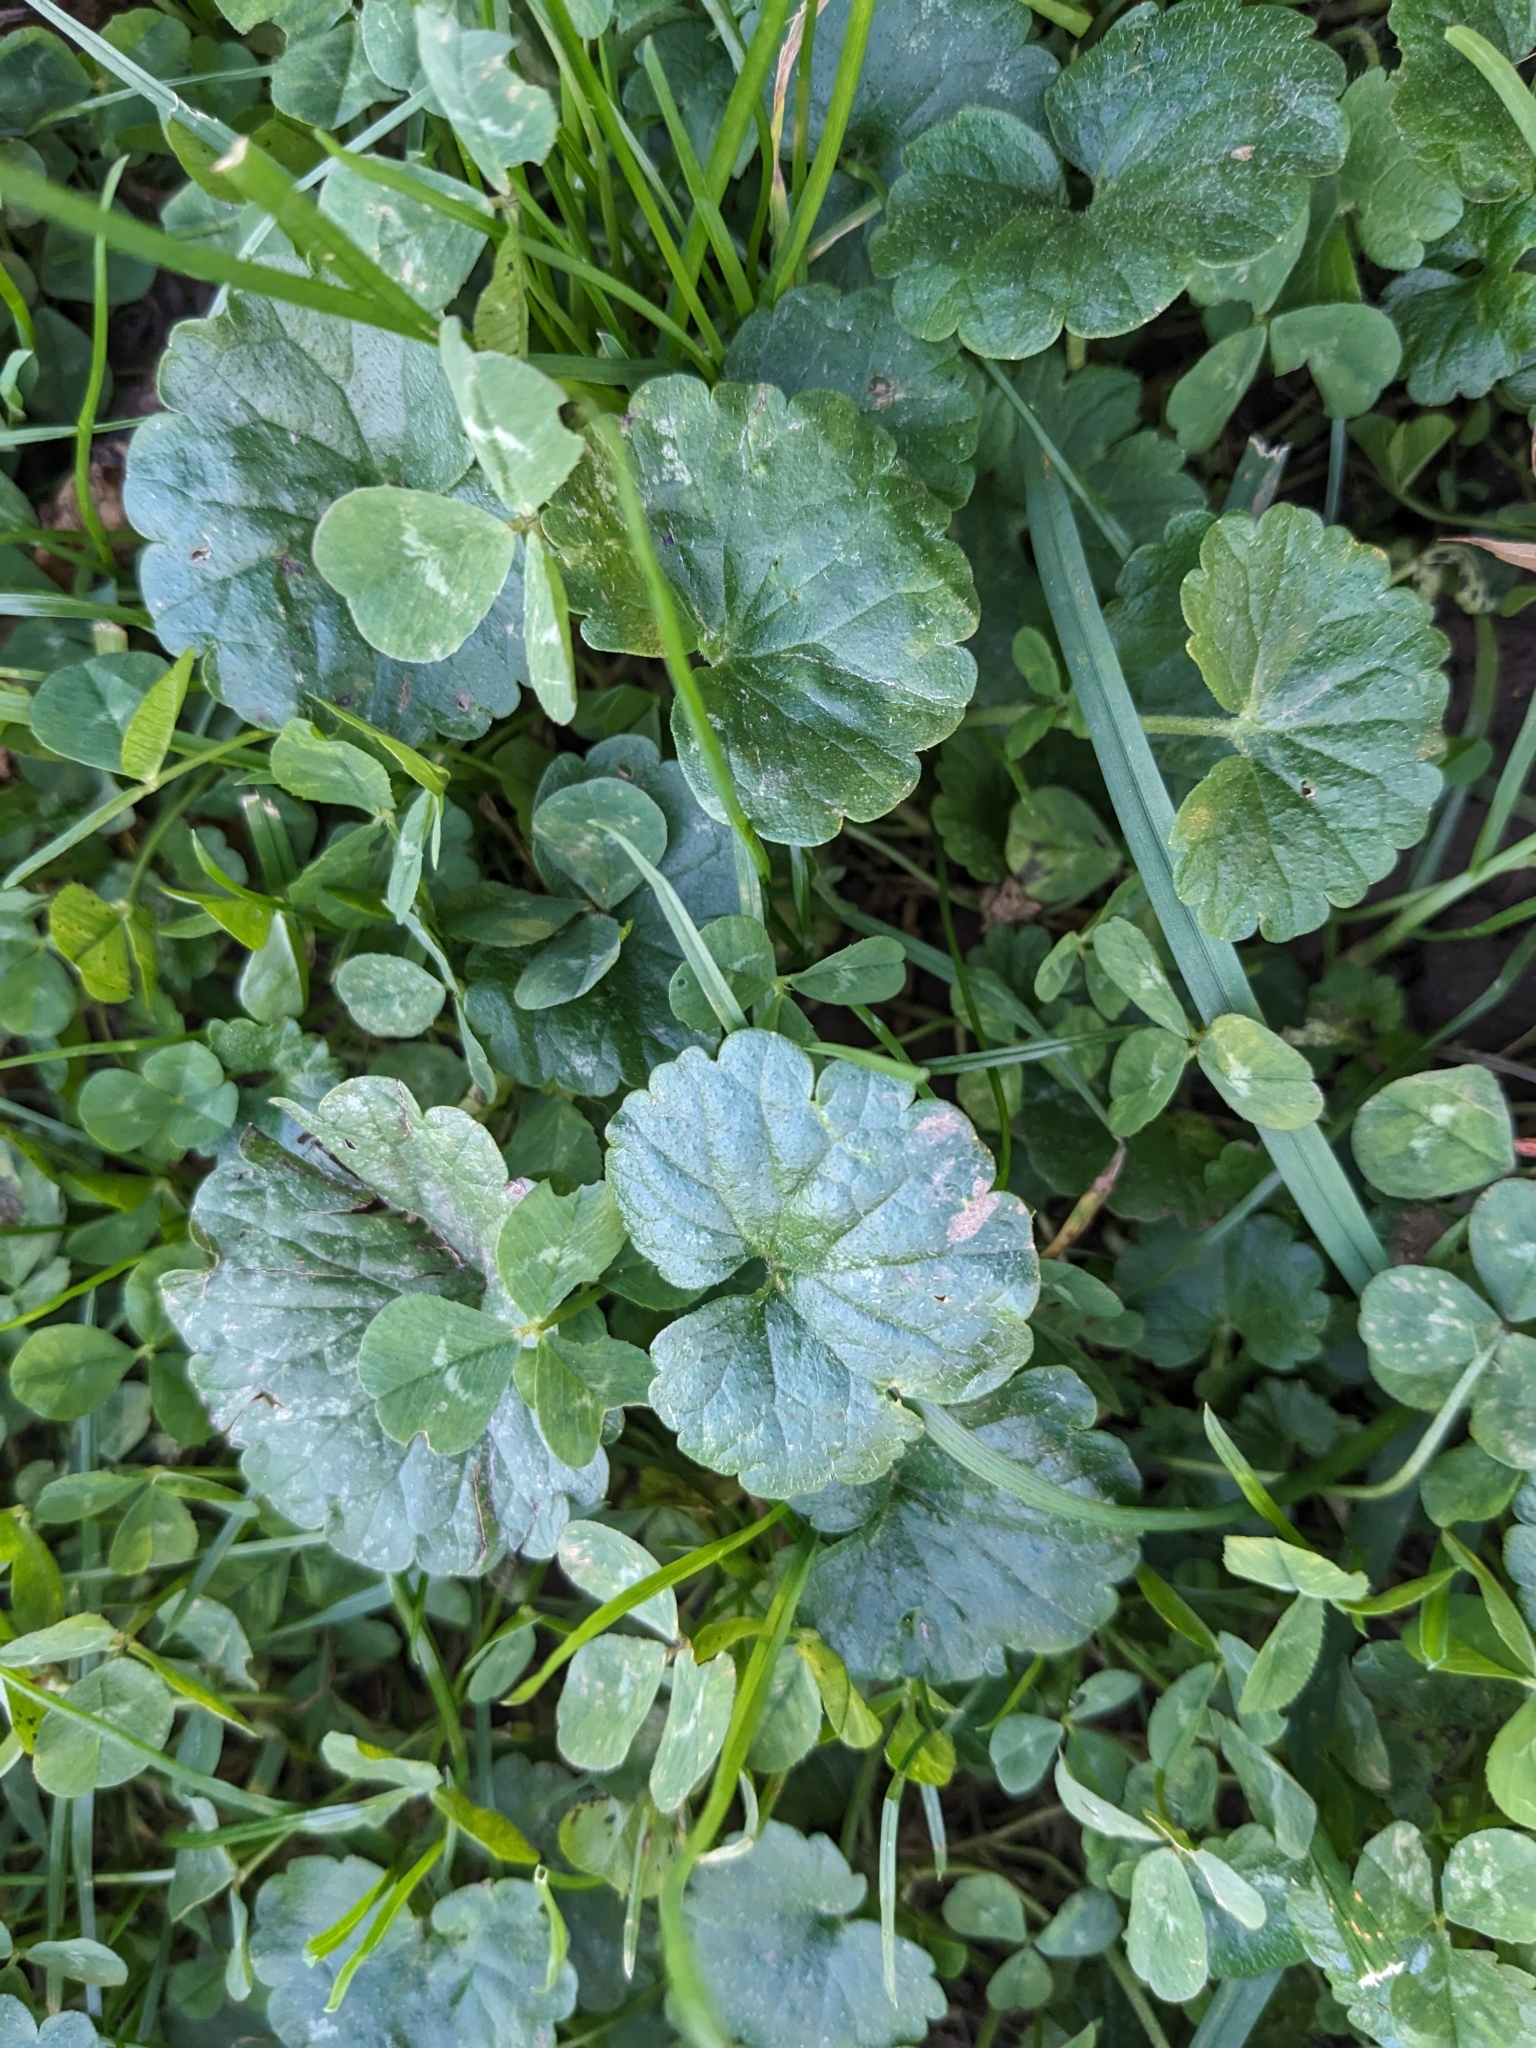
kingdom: Plantae
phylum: Tracheophyta
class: Magnoliopsida
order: Lamiales
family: Lamiaceae
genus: Glechoma
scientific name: Glechoma hederacea
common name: Ground ivy
